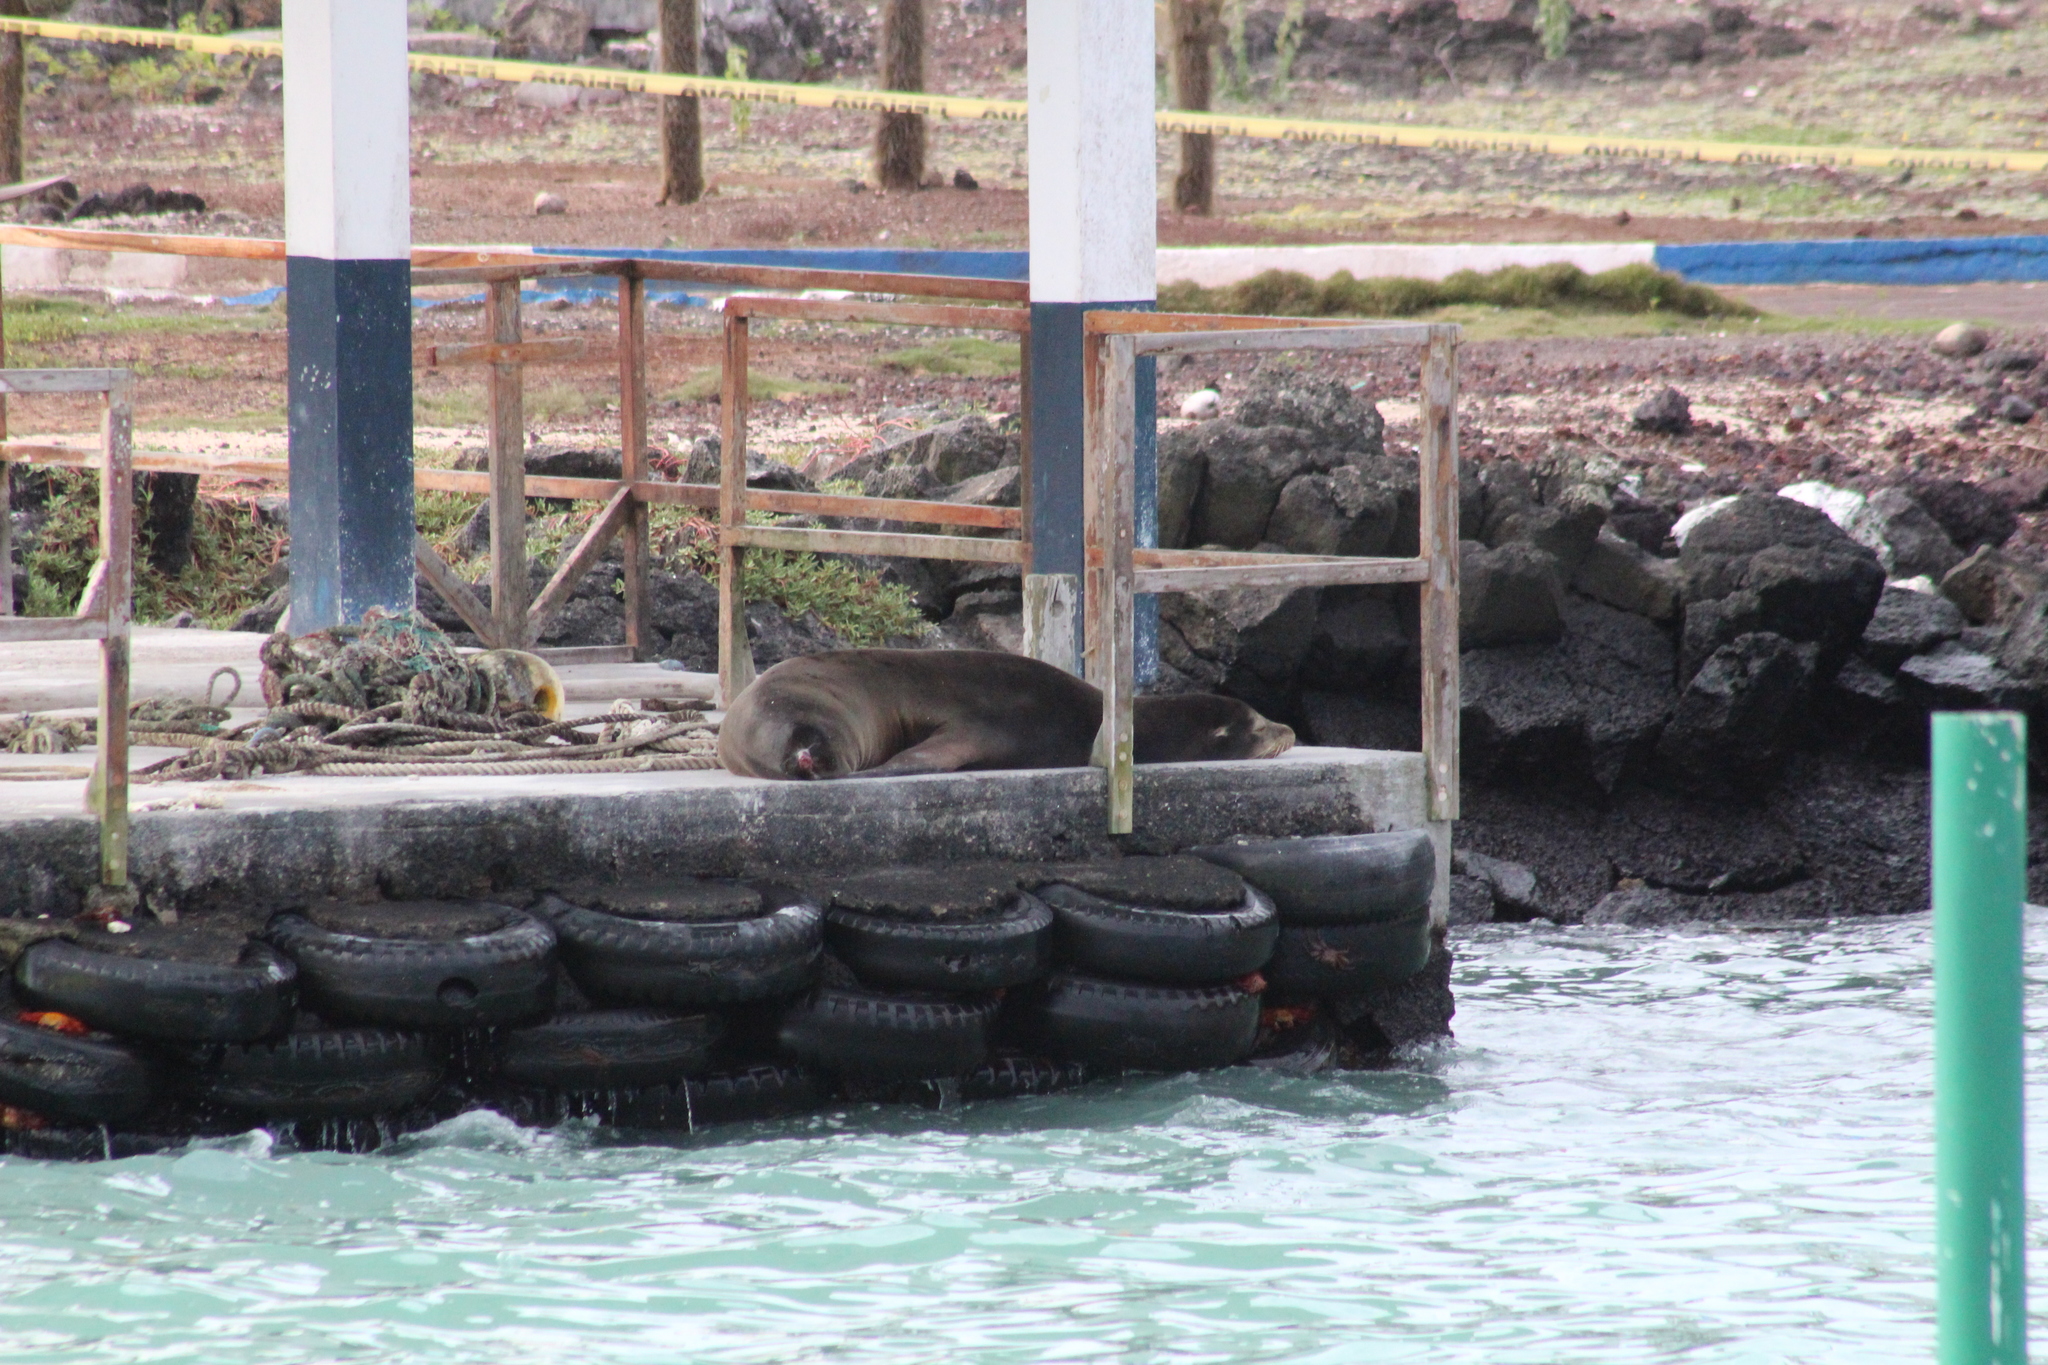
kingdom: Animalia
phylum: Chordata
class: Mammalia
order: Carnivora
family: Otariidae
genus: Zalophus
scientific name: Zalophus wollebaeki
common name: Galapagos sea lion
